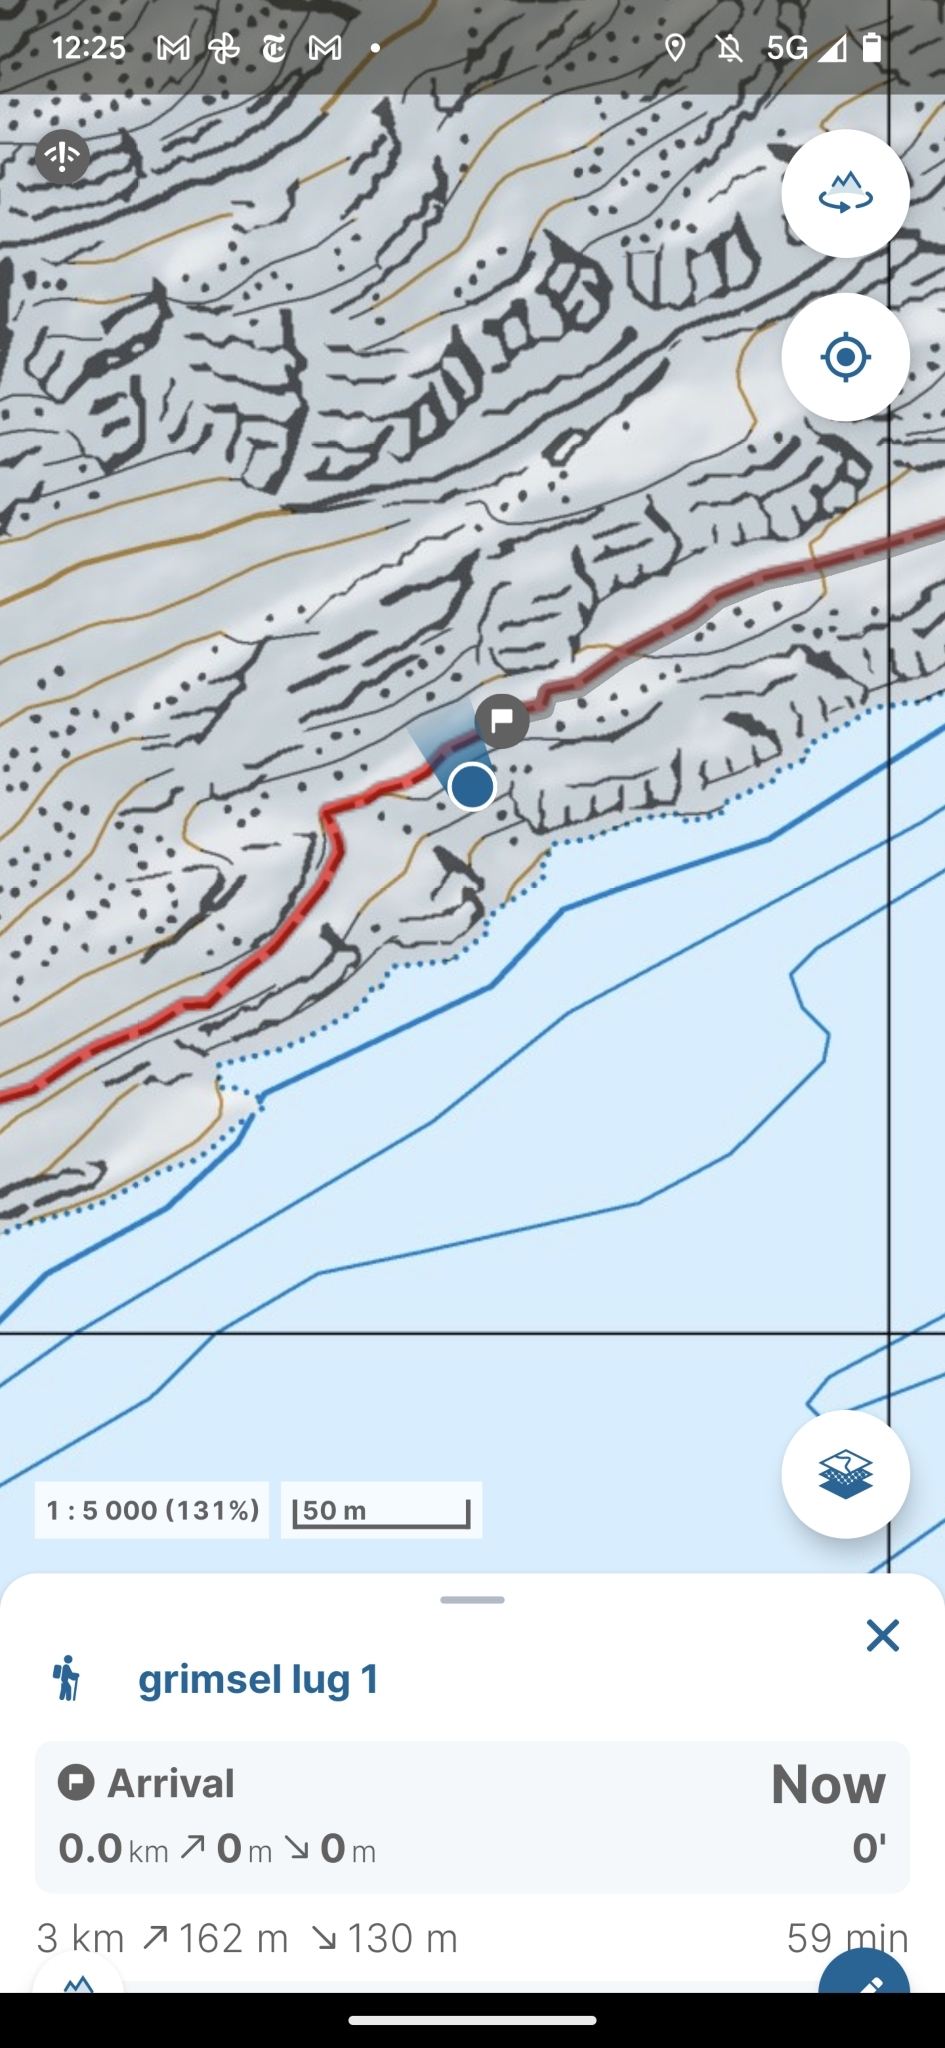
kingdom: Animalia
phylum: Arthropoda
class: Insecta
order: Hymenoptera
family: Formicidae
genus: Formica
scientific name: Formica
